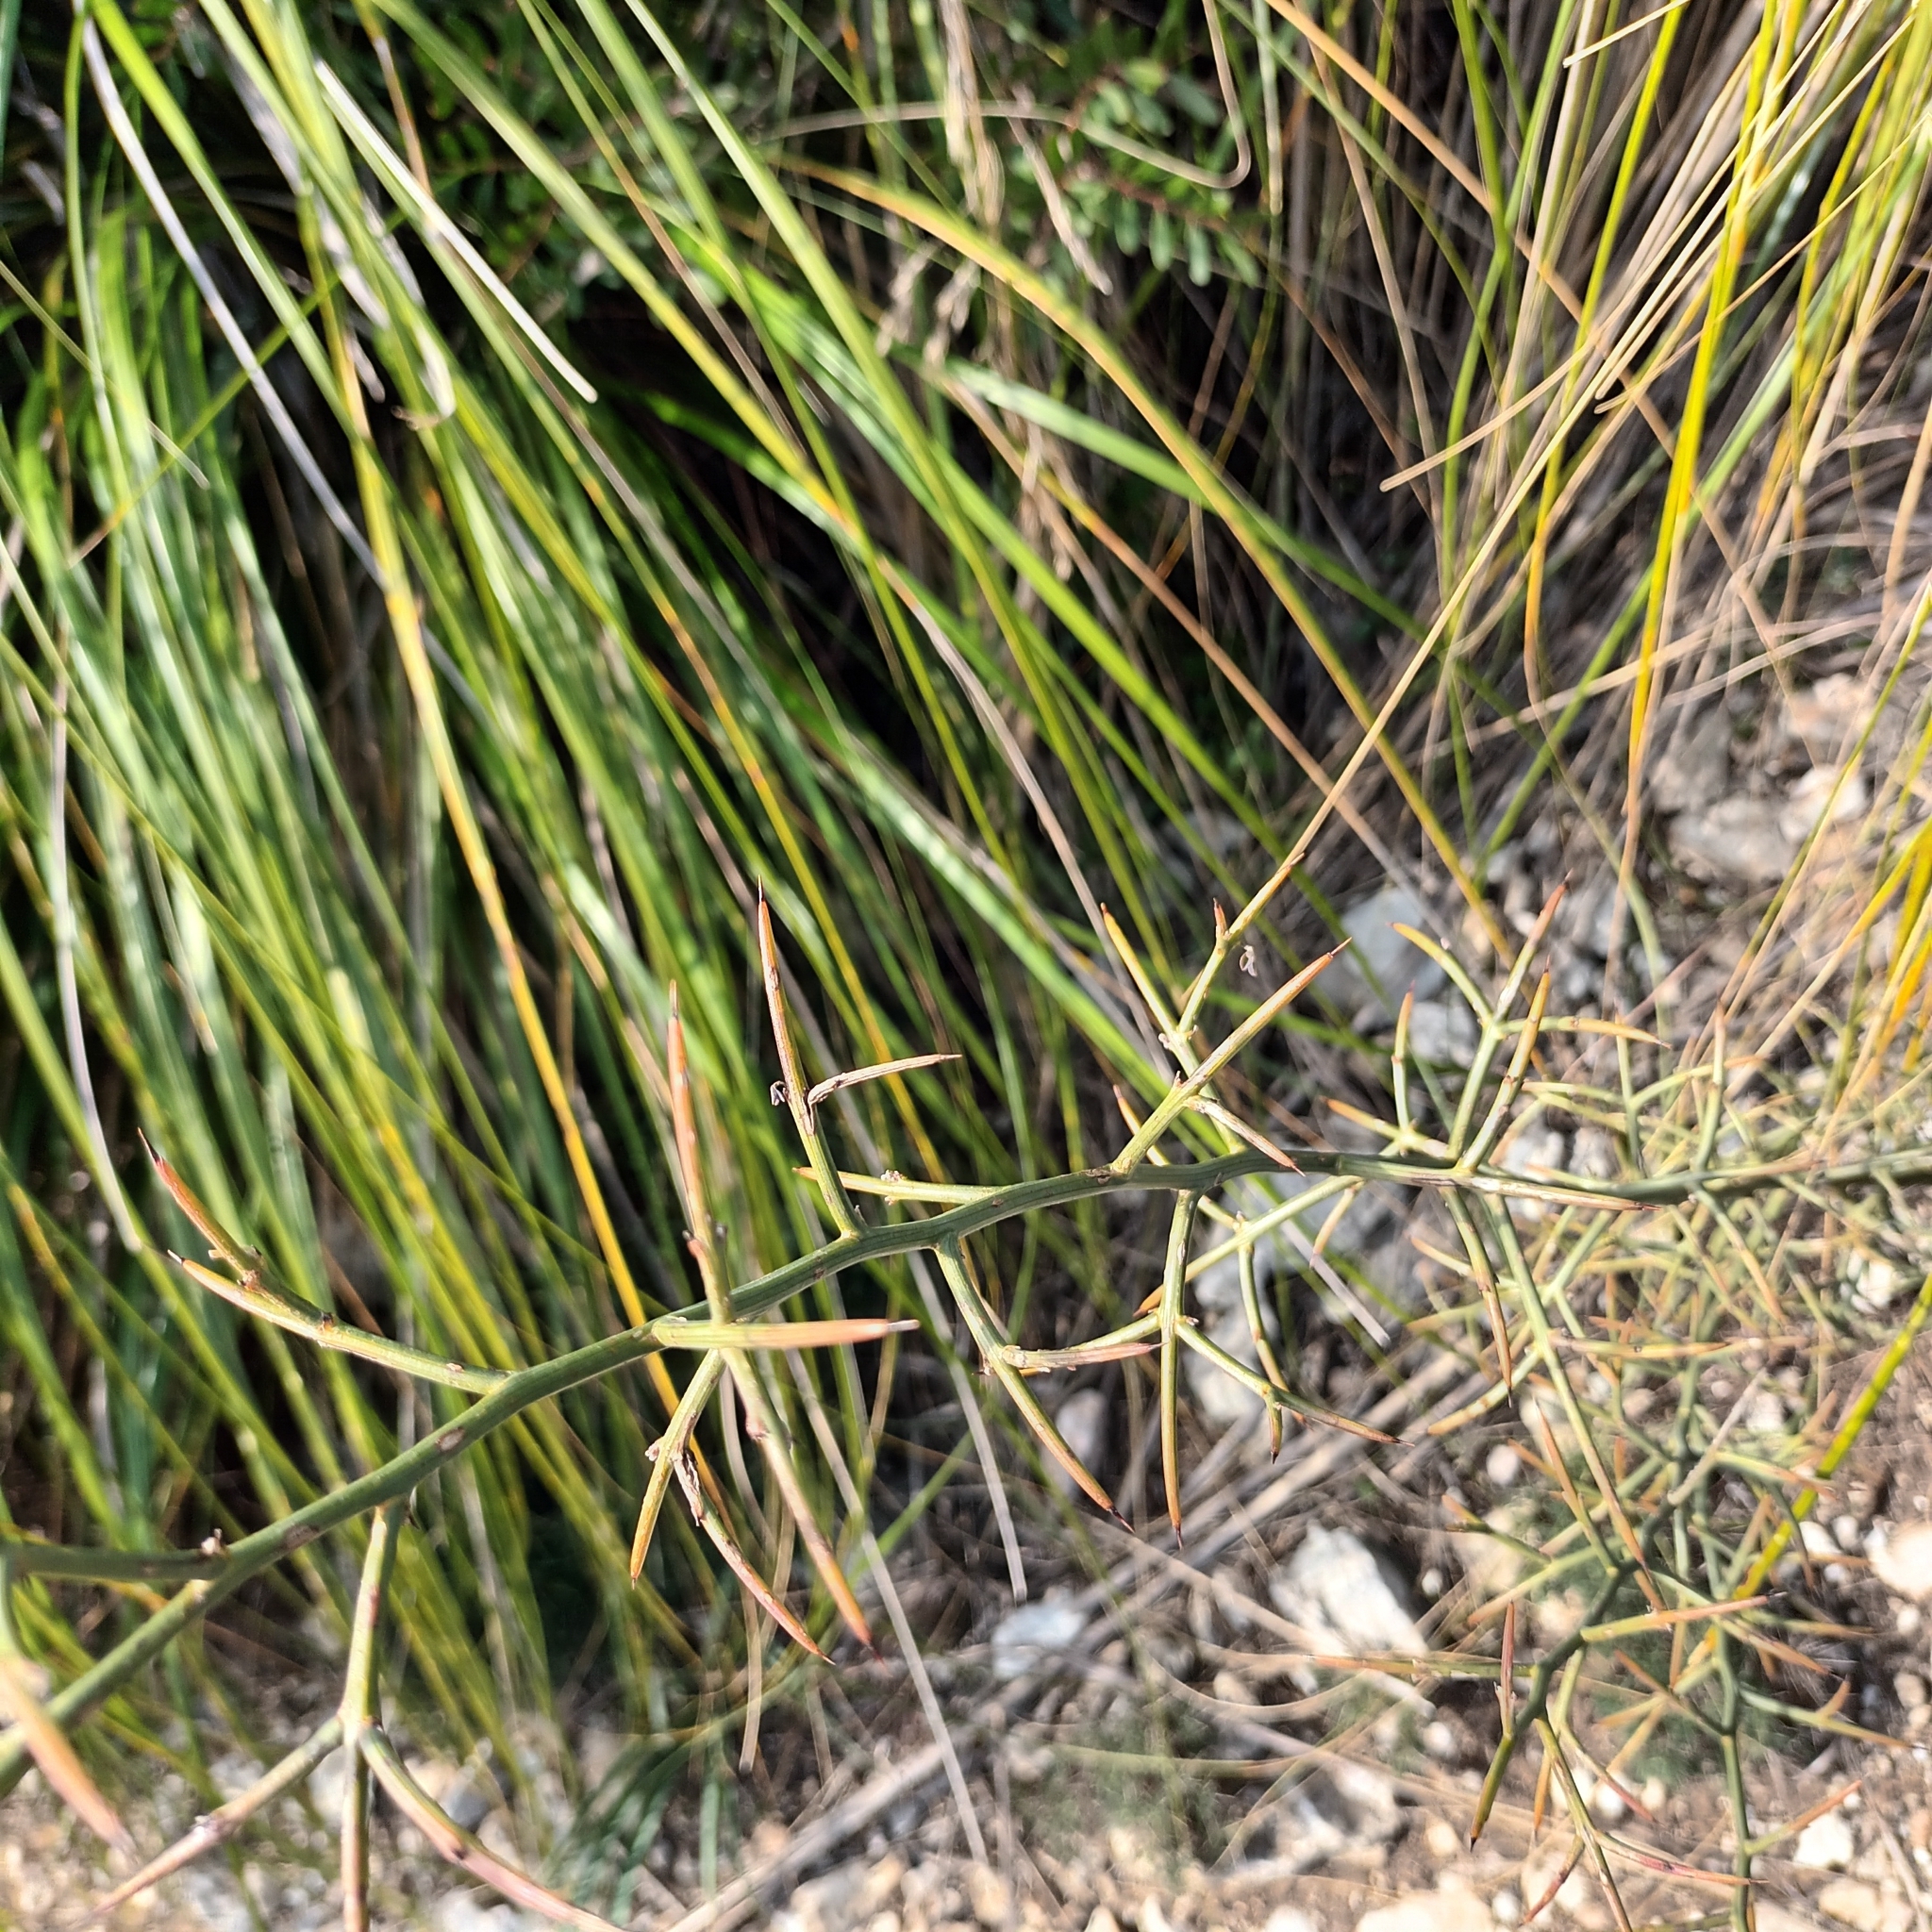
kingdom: Plantae
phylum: Tracheophyta
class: Liliopsida
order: Asparagales
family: Asparagaceae
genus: Asparagus
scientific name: Asparagus horridus
